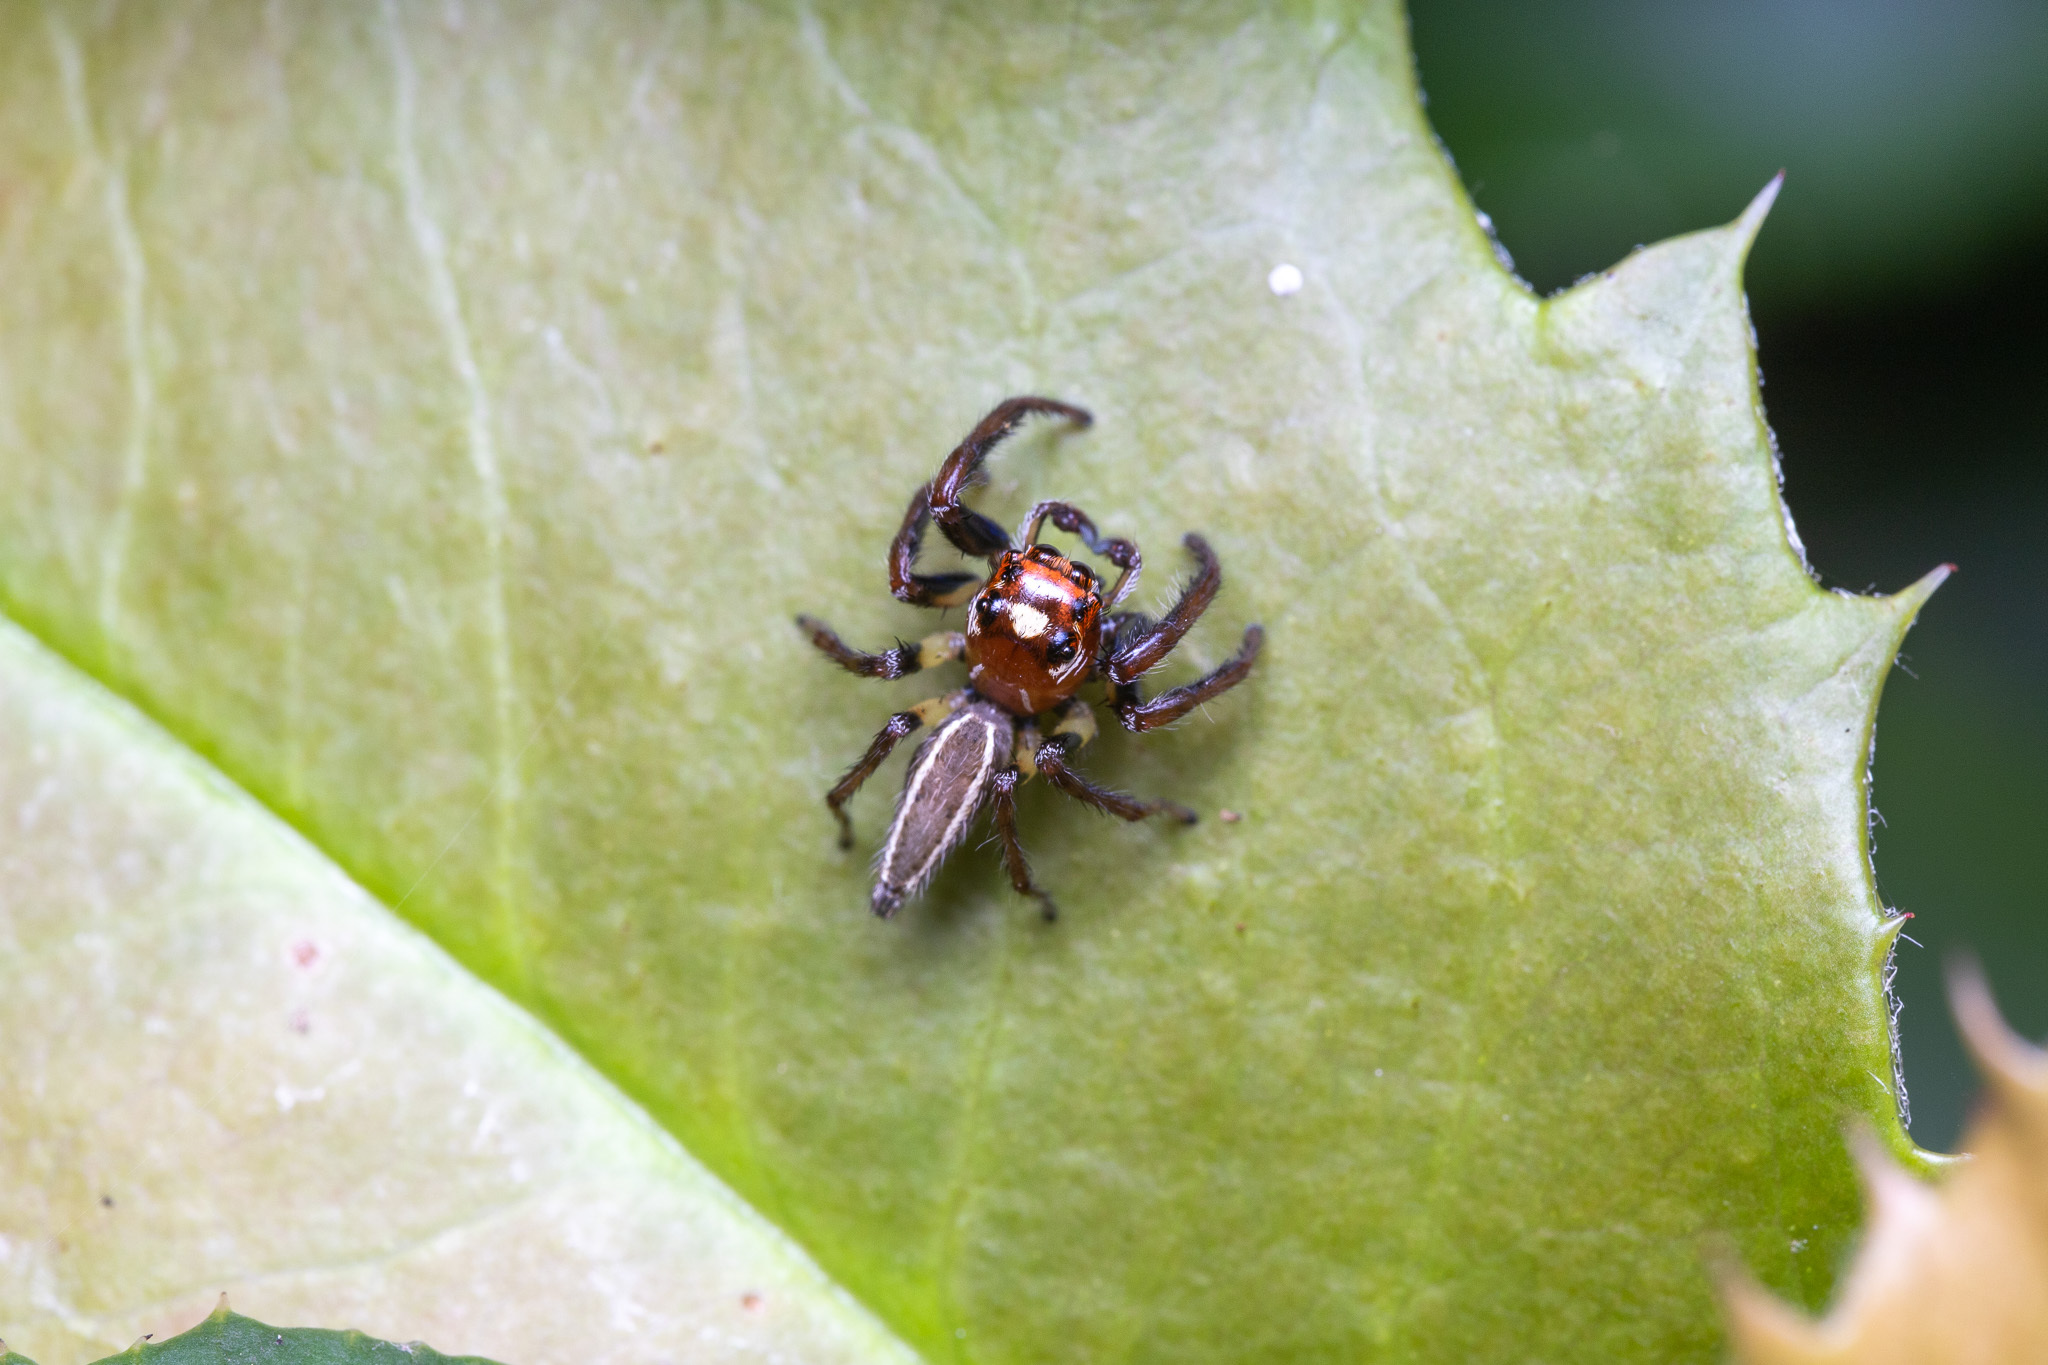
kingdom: Animalia
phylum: Arthropoda
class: Arachnida
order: Araneae
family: Salticidae
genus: Colonus
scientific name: Colonus sylvanus
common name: Jumping spiders
